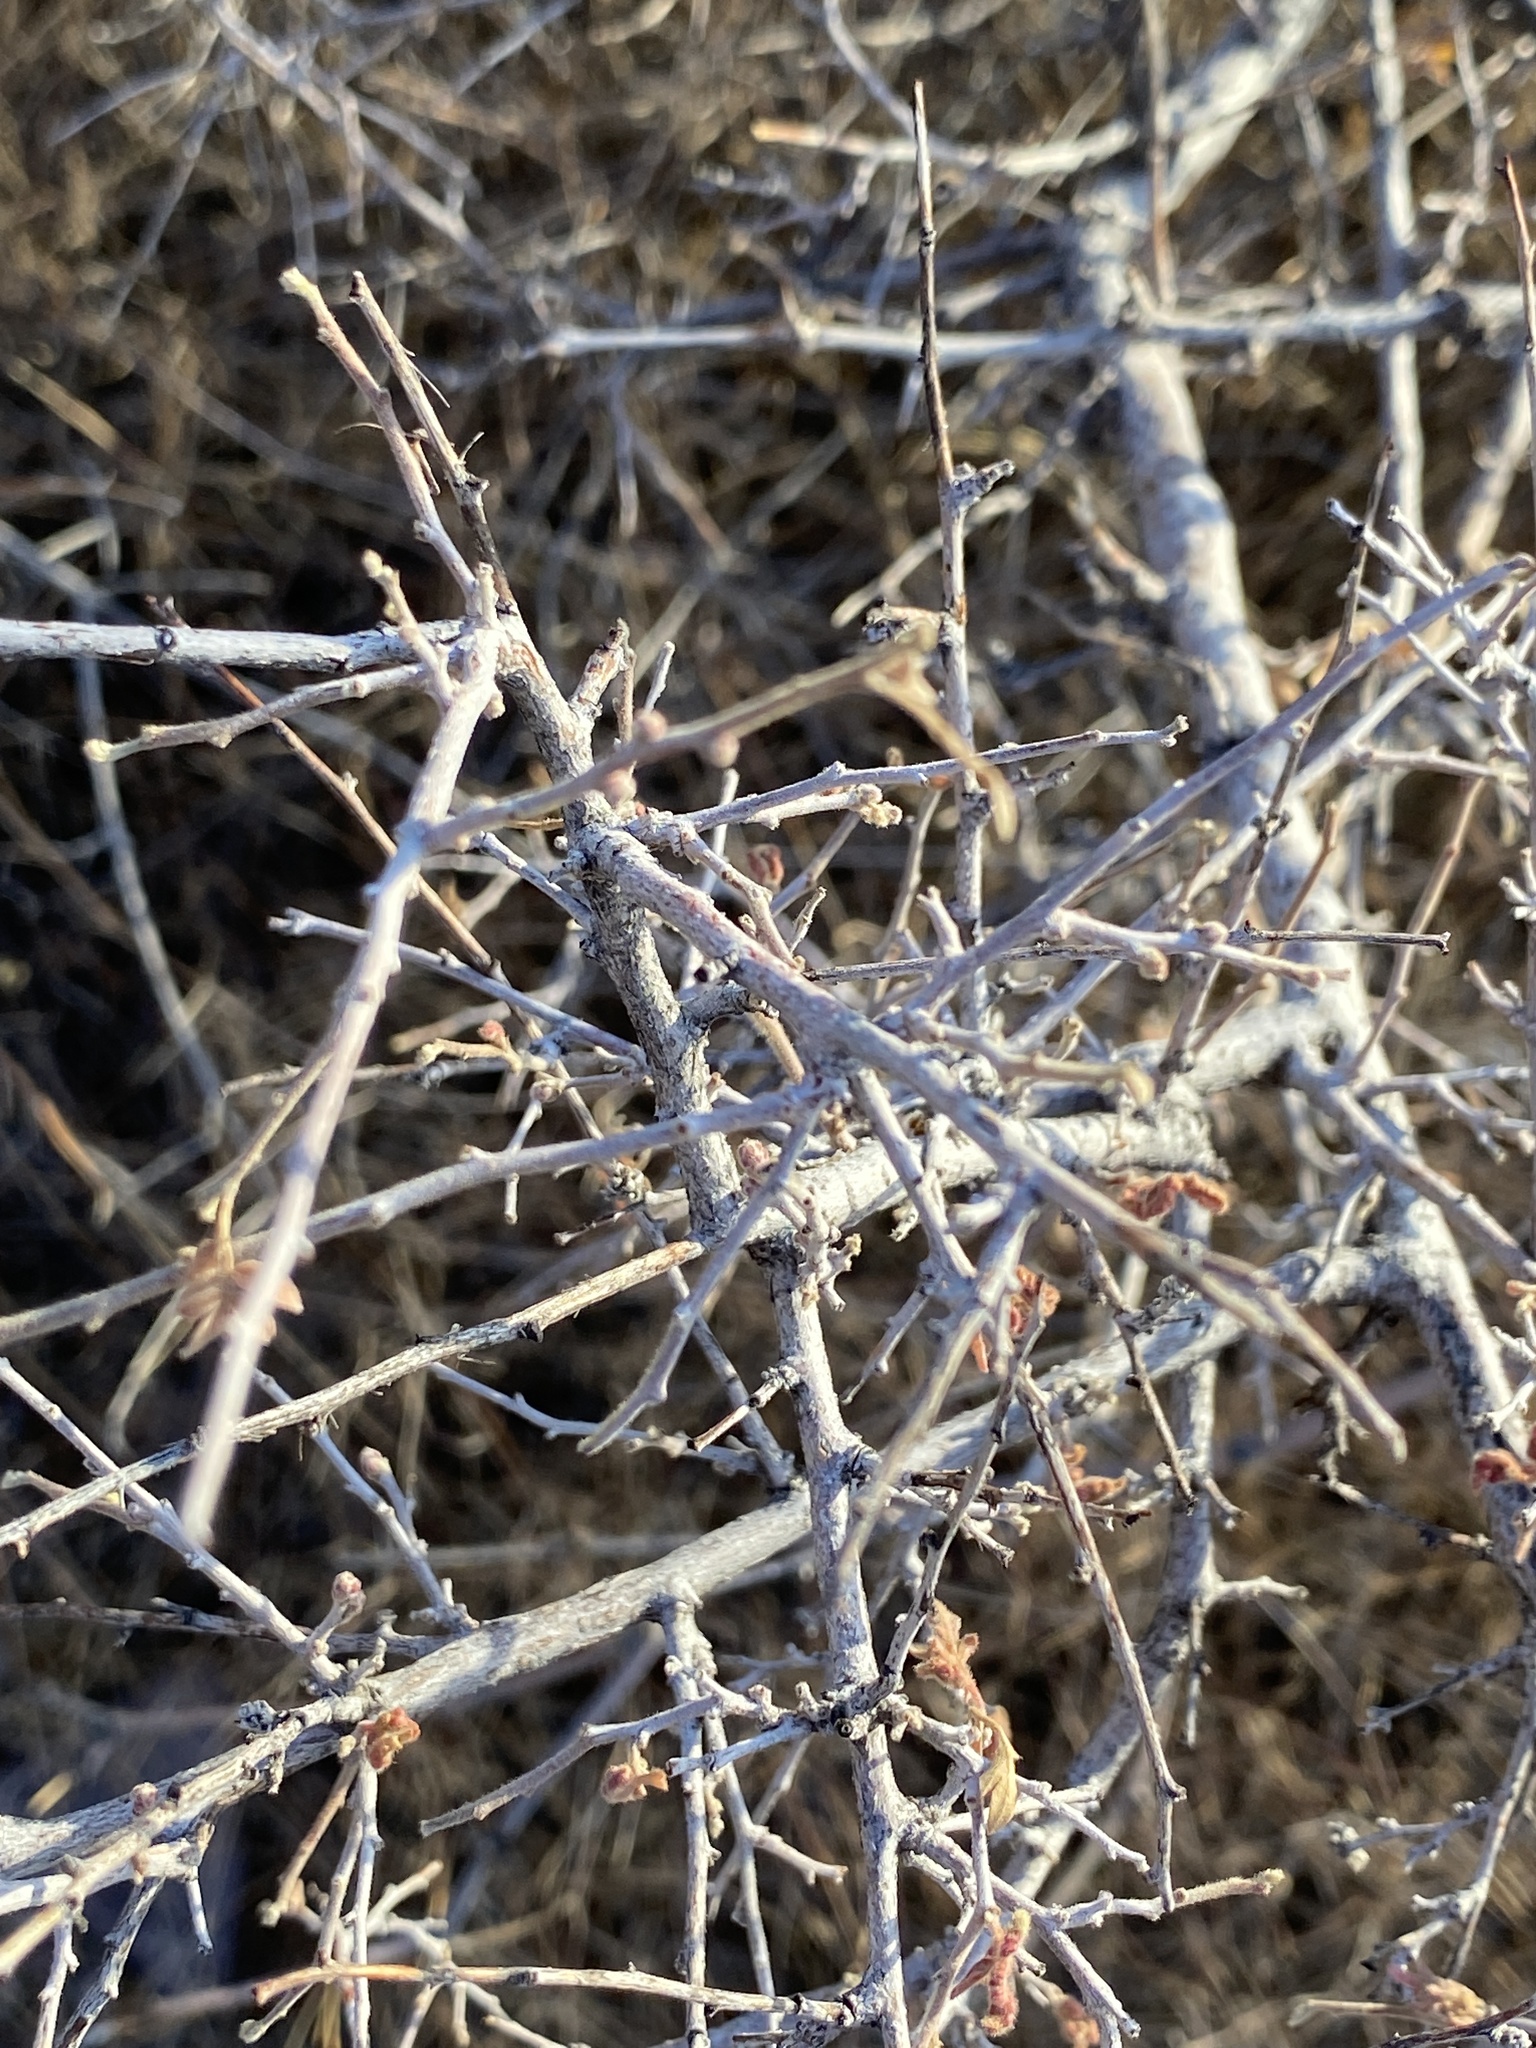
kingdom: Plantae
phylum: Tracheophyta
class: Magnoliopsida
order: Sapindales
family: Anacardiaceae
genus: Rhus
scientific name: Rhus microphylla
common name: Desert sumac
